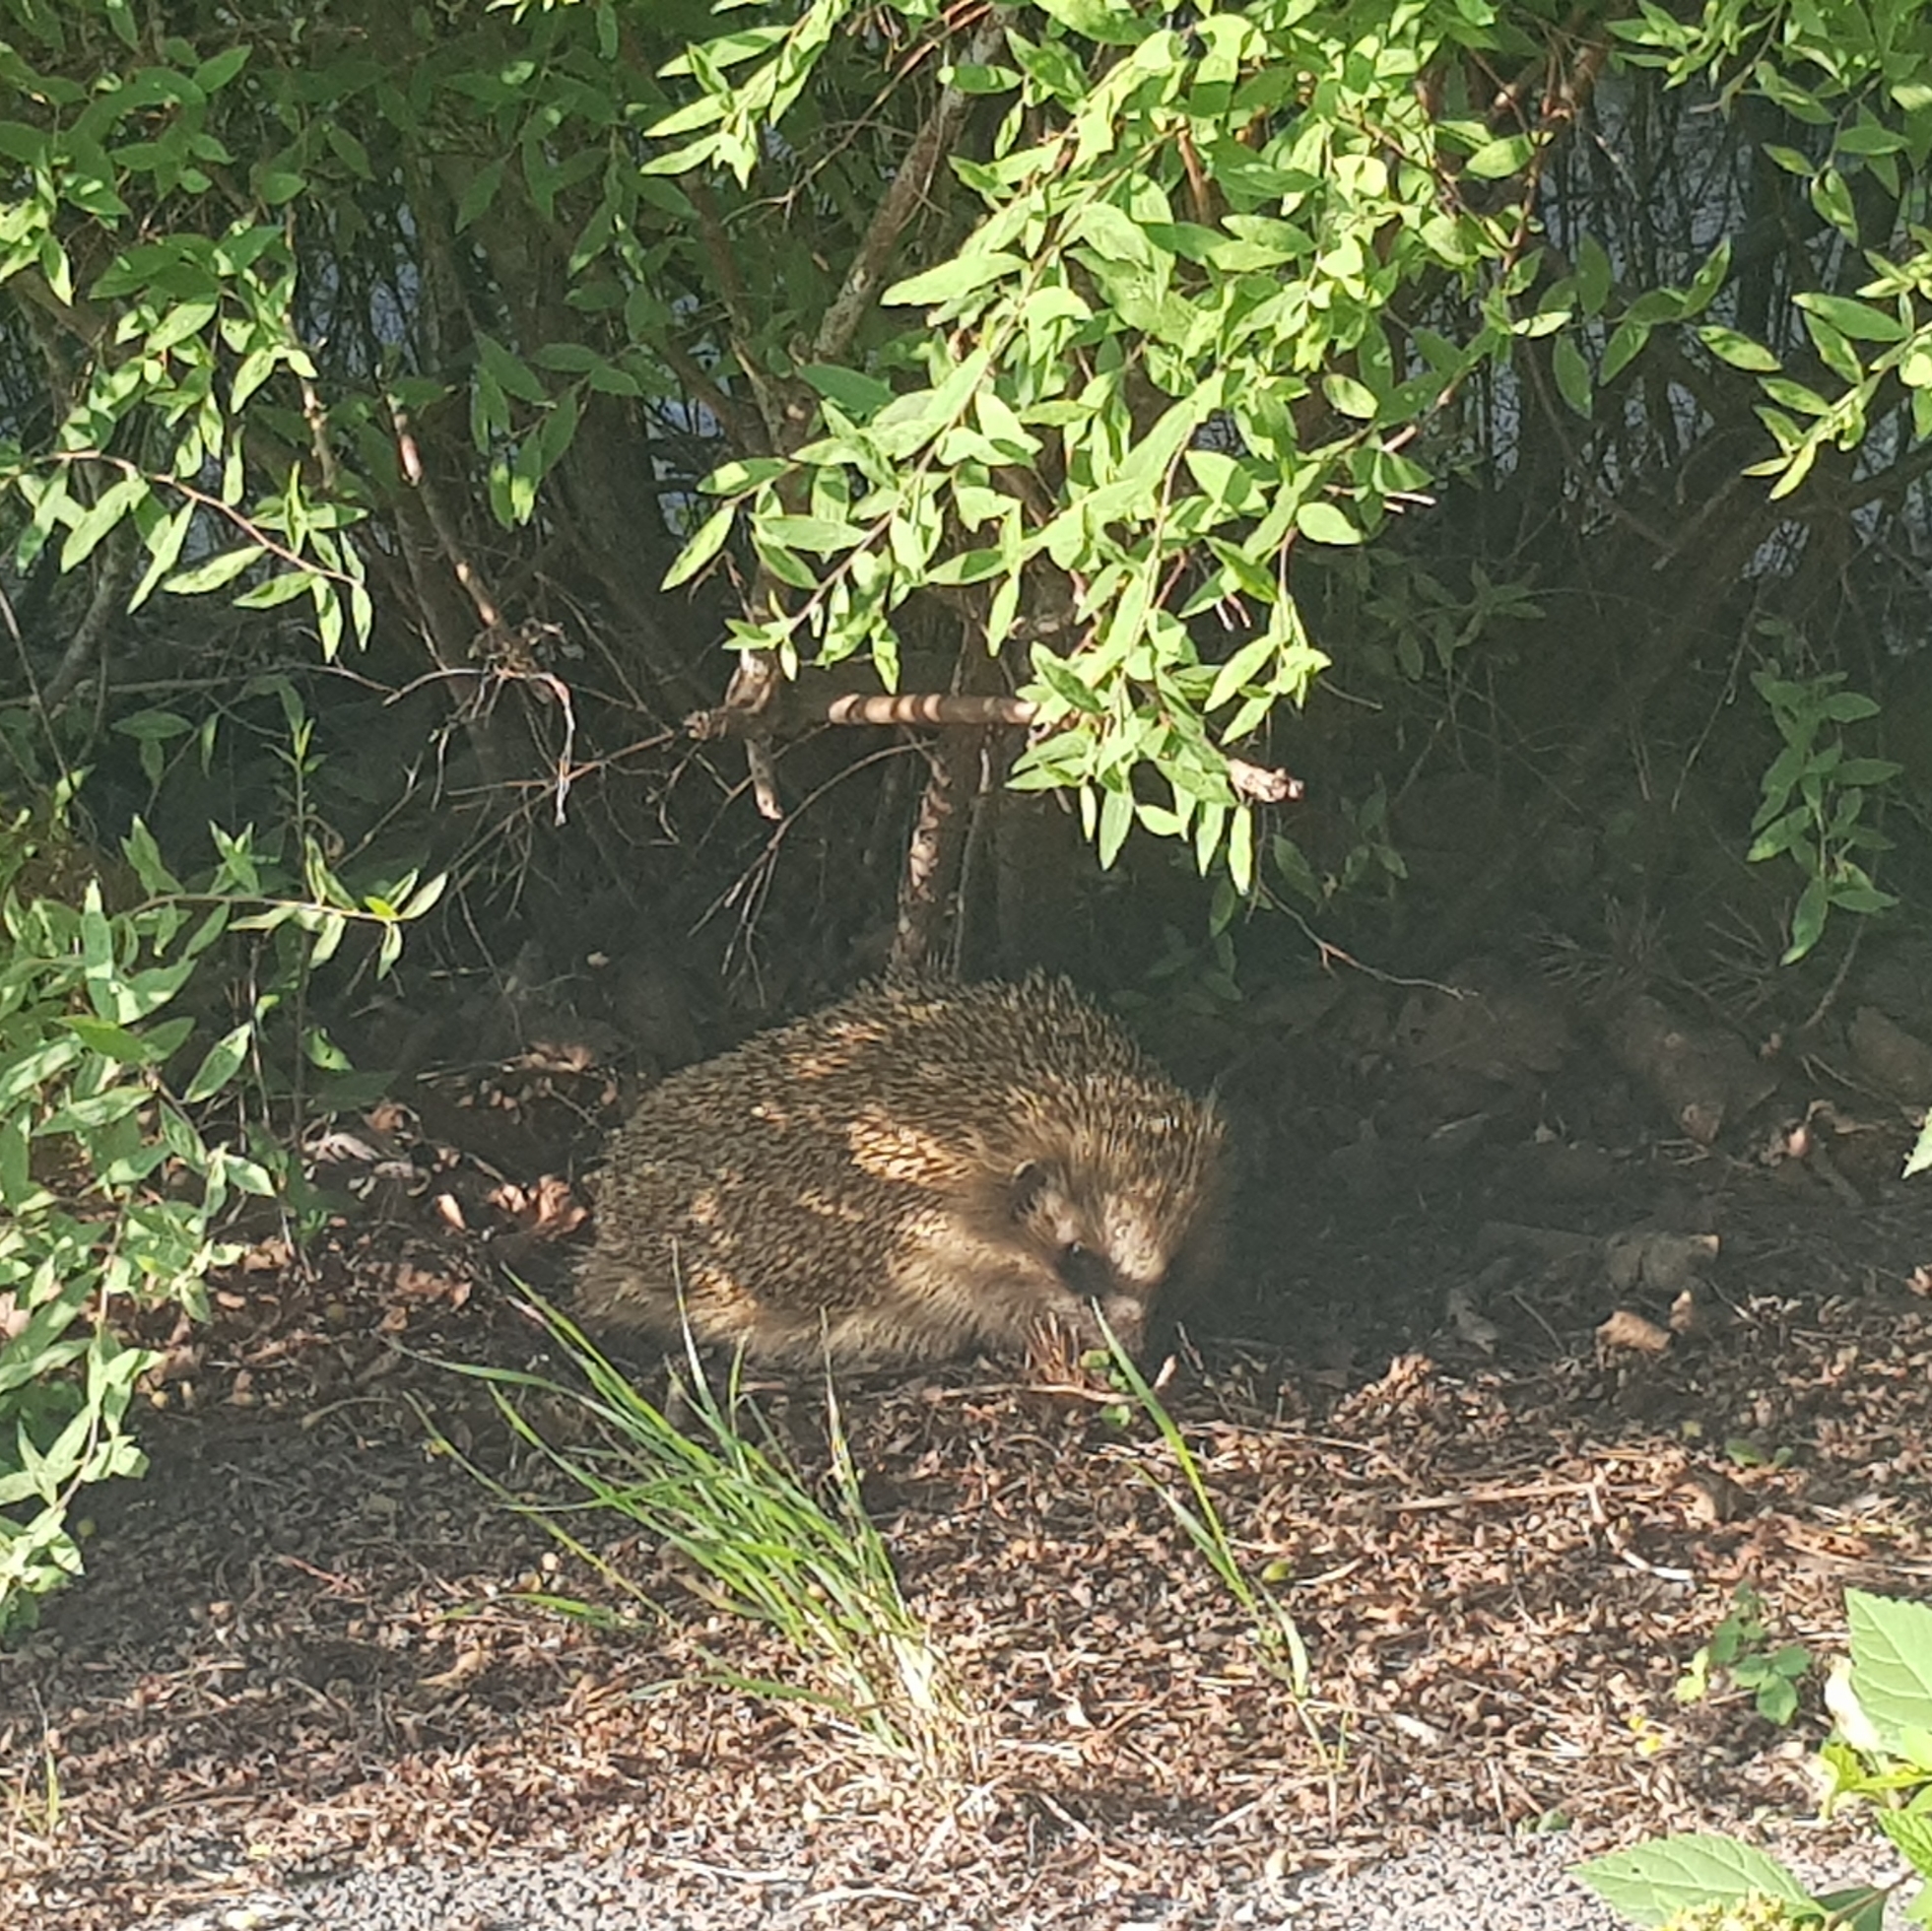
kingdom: Animalia
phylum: Chordata
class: Mammalia
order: Erinaceomorpha
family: Erinaceidae
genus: Erinaceus
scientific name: Erinaceus europaeus
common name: West european hedgehog
